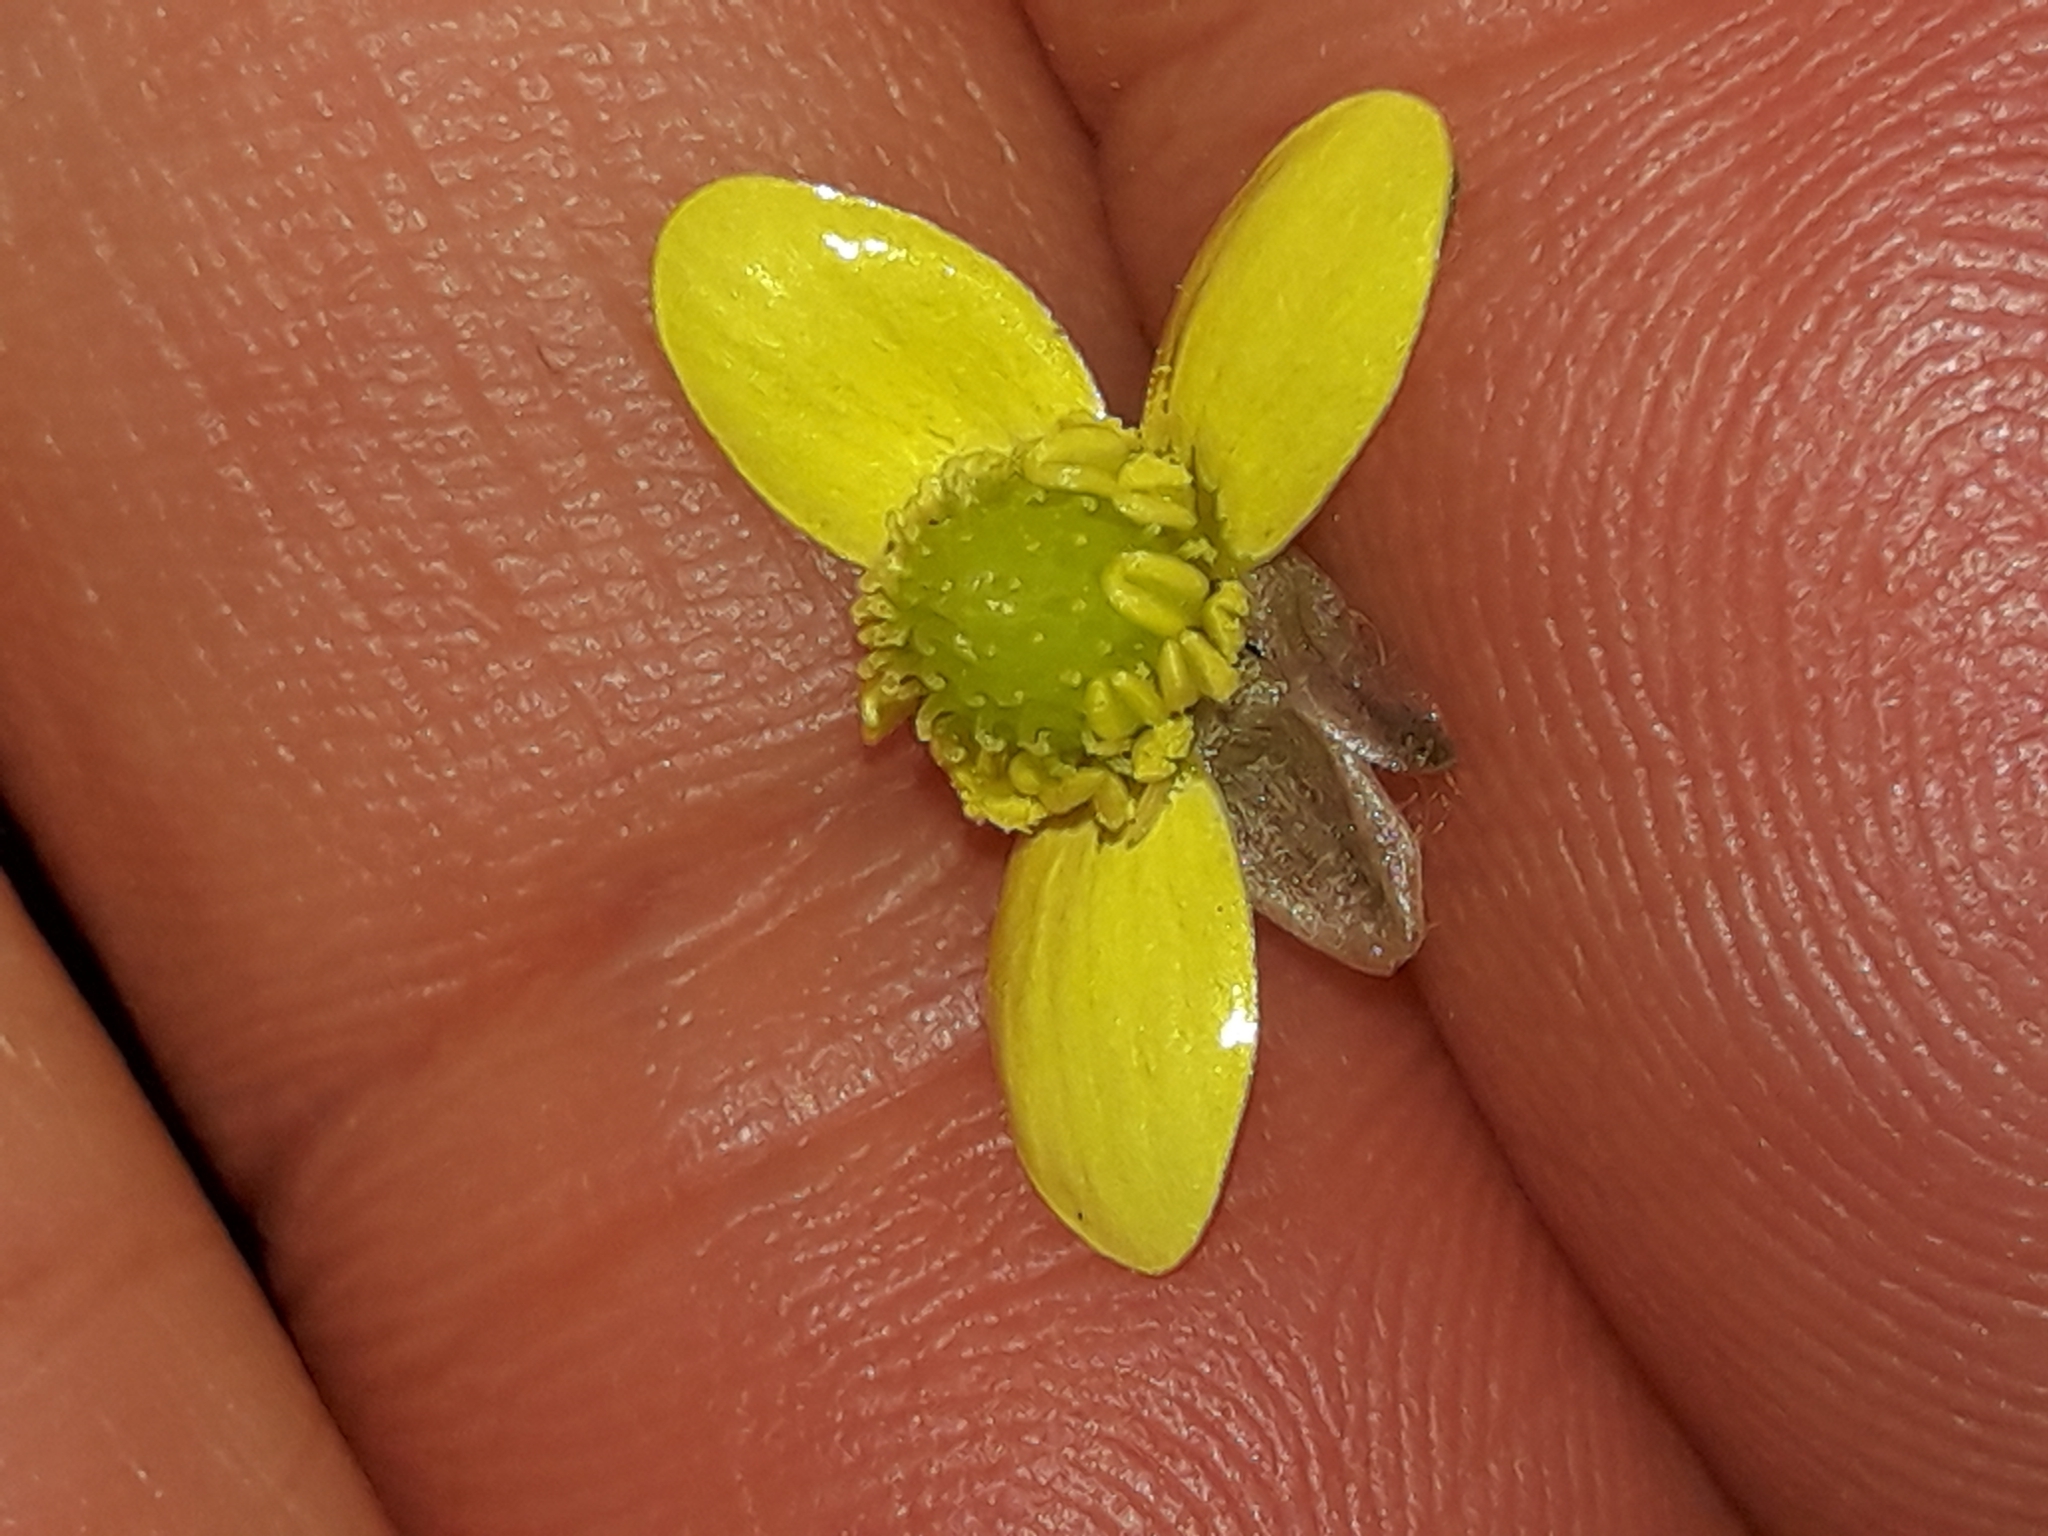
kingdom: Plantae
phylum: Tracheophyta
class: Magnoliopsida
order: Ranunculales
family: Ranunculaceae
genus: Ranunculus
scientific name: Ranunculus reflexus
